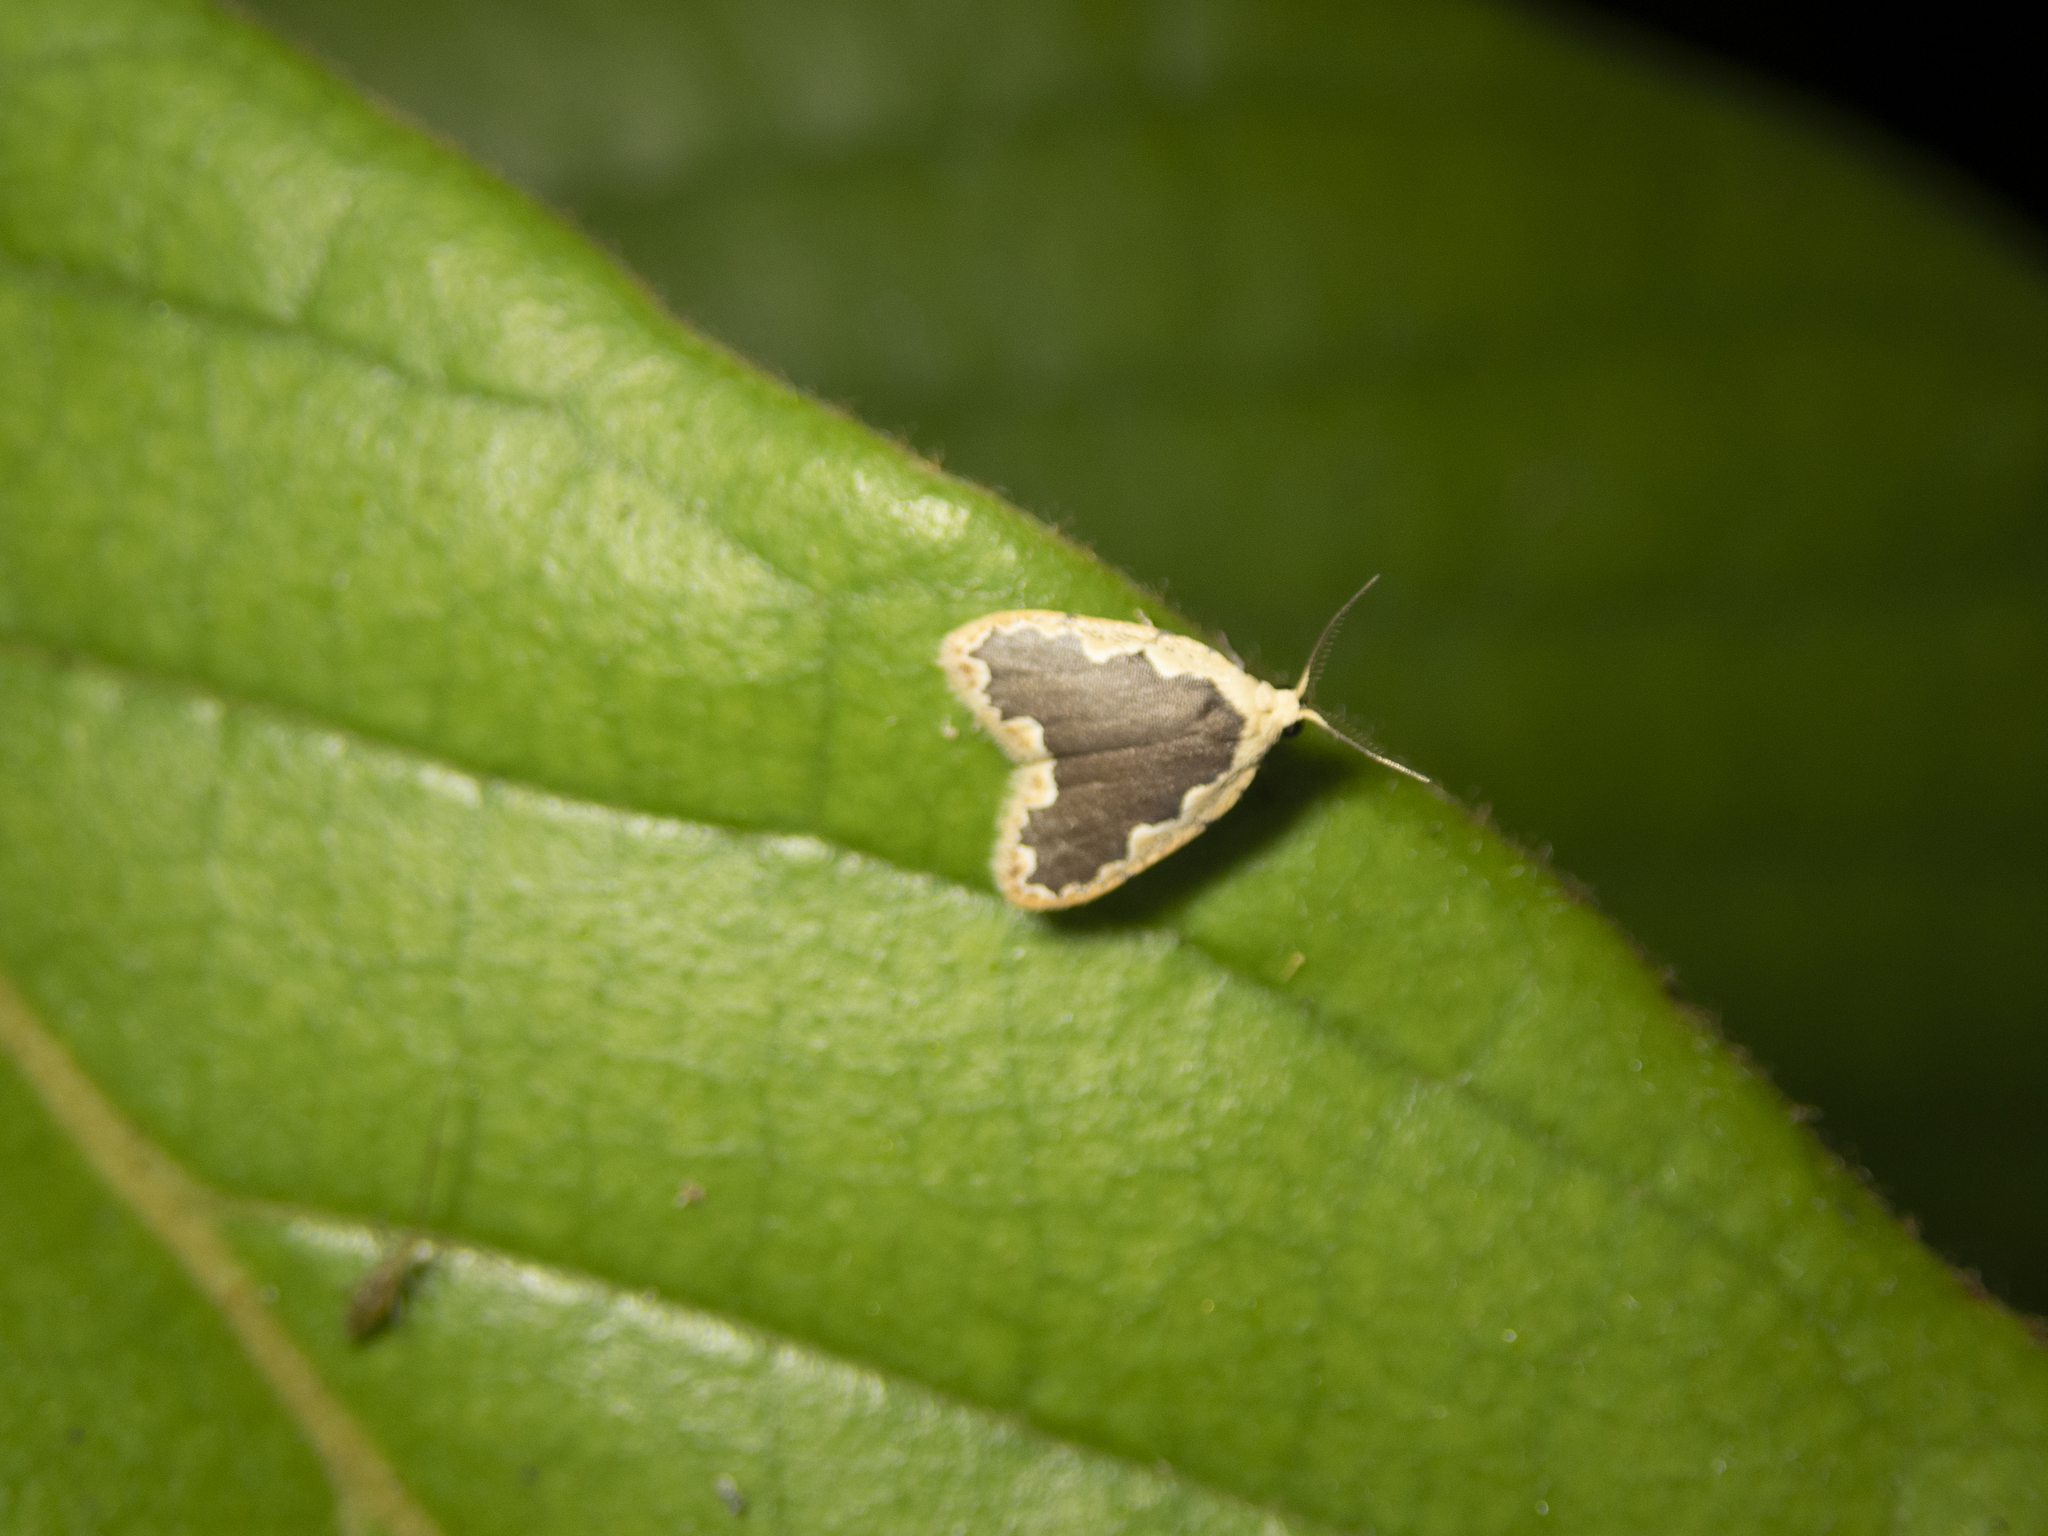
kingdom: Animalia
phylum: Arthropoda
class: Insecta
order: Lepidoptera
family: Erebidae
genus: Diduga
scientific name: Diduga flavicostata
